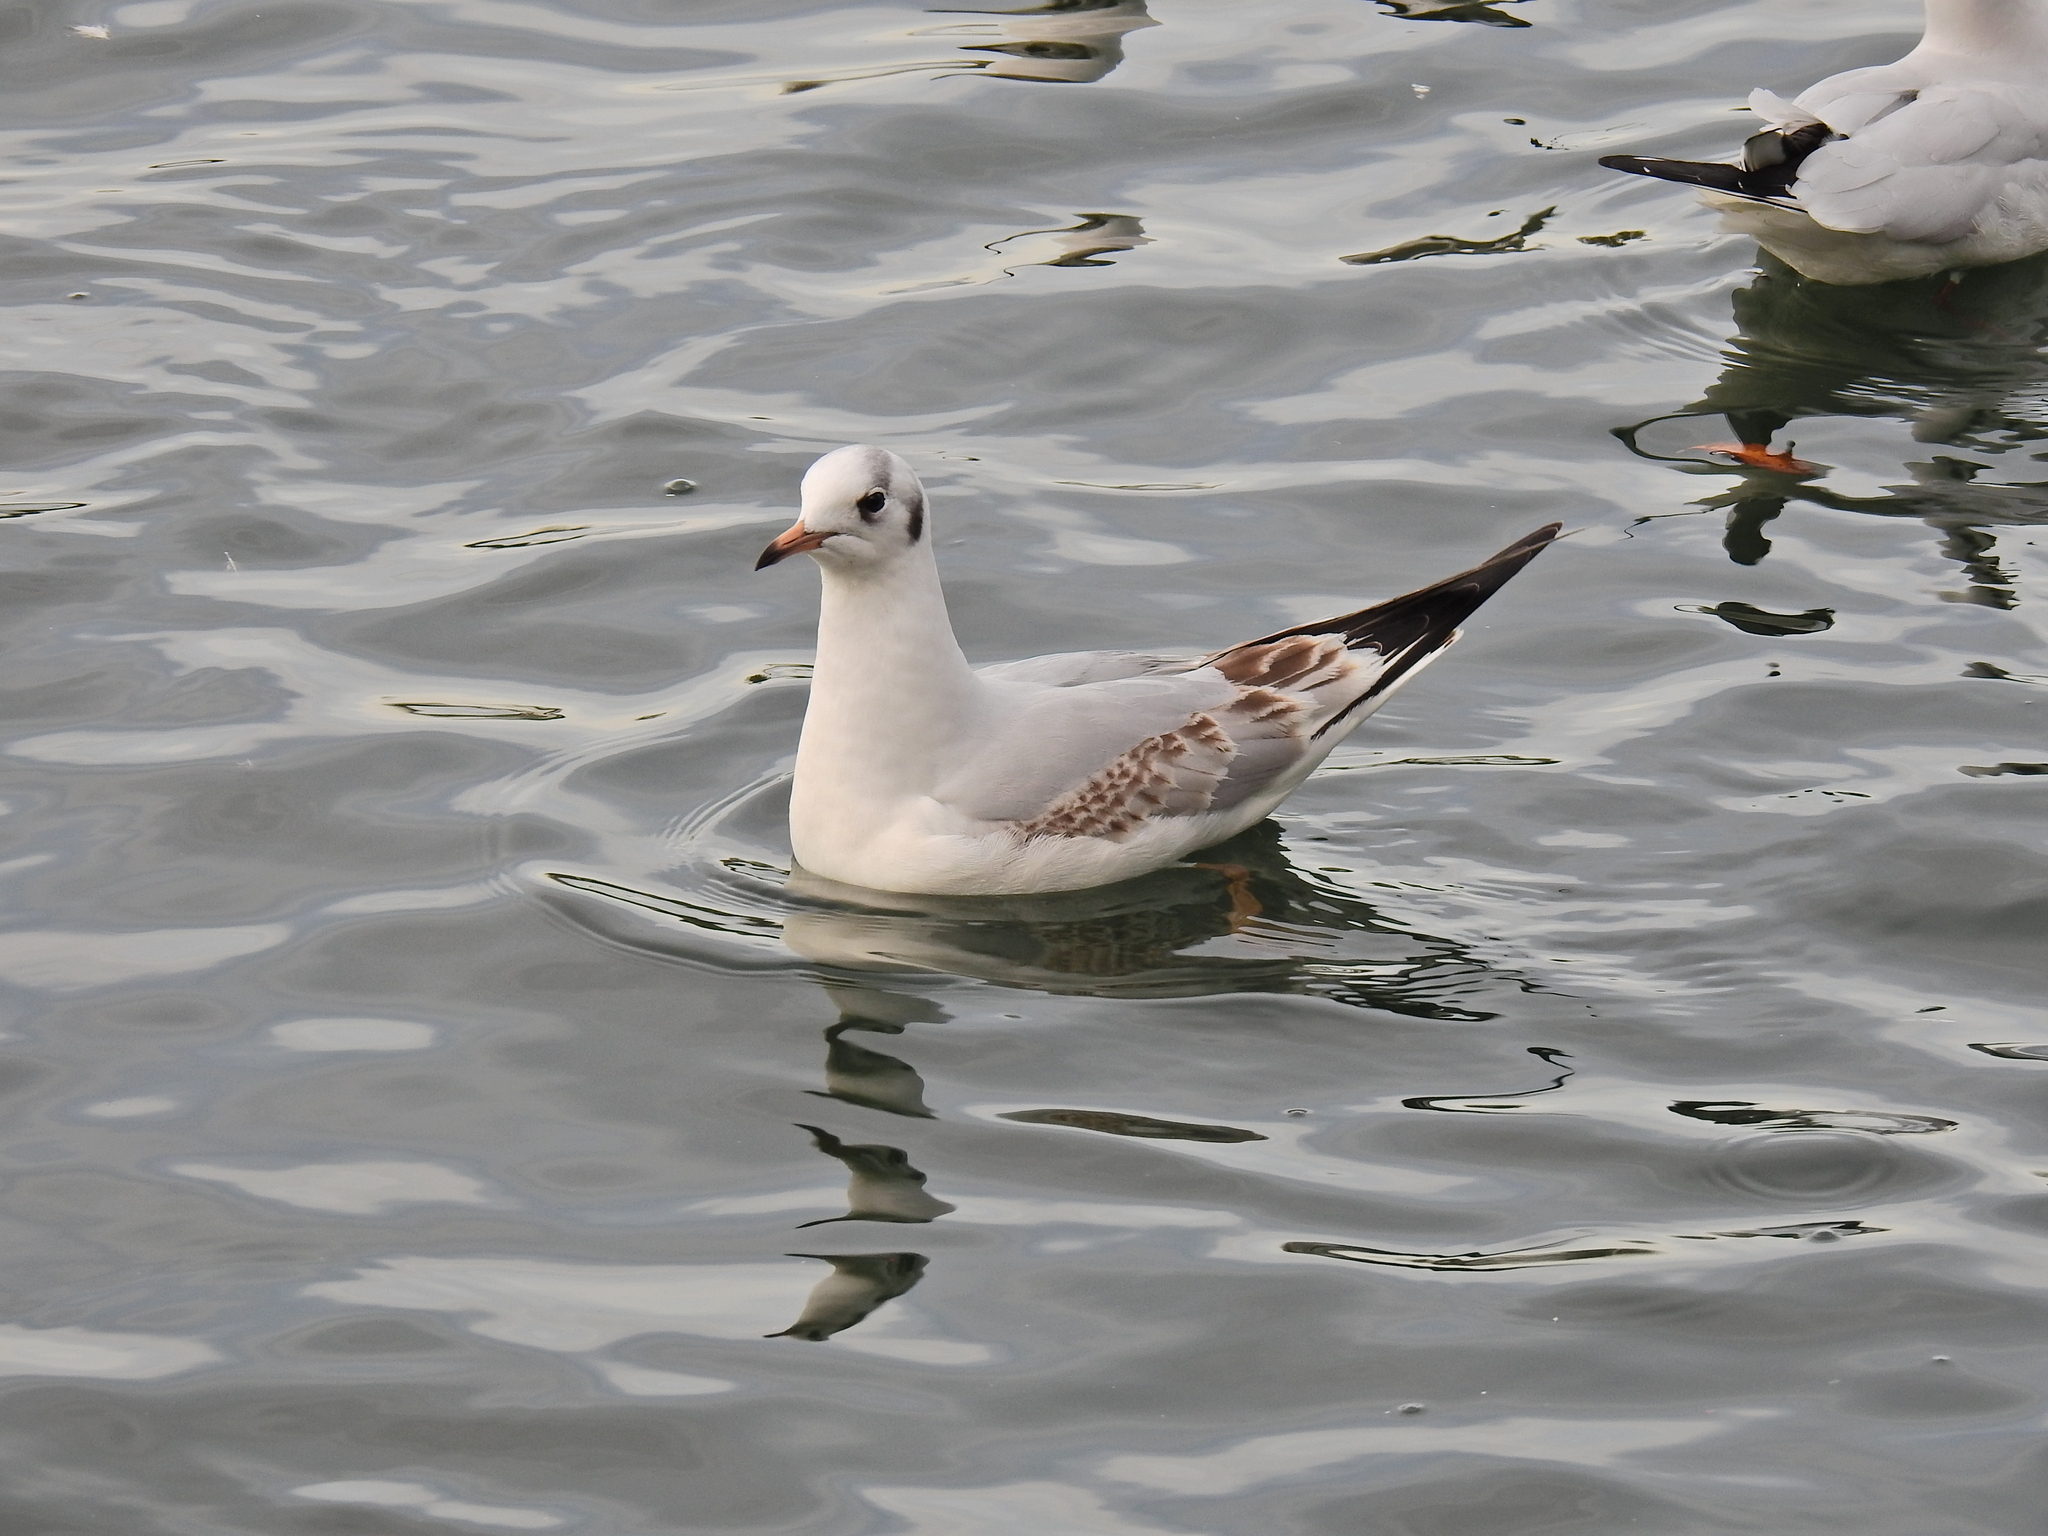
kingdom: Animalia
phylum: Chordata
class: Aves
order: Charadriiformes
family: Laridae
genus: Chroicocephalus
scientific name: Chroicocephalus ridibundus
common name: Black-headed gull
